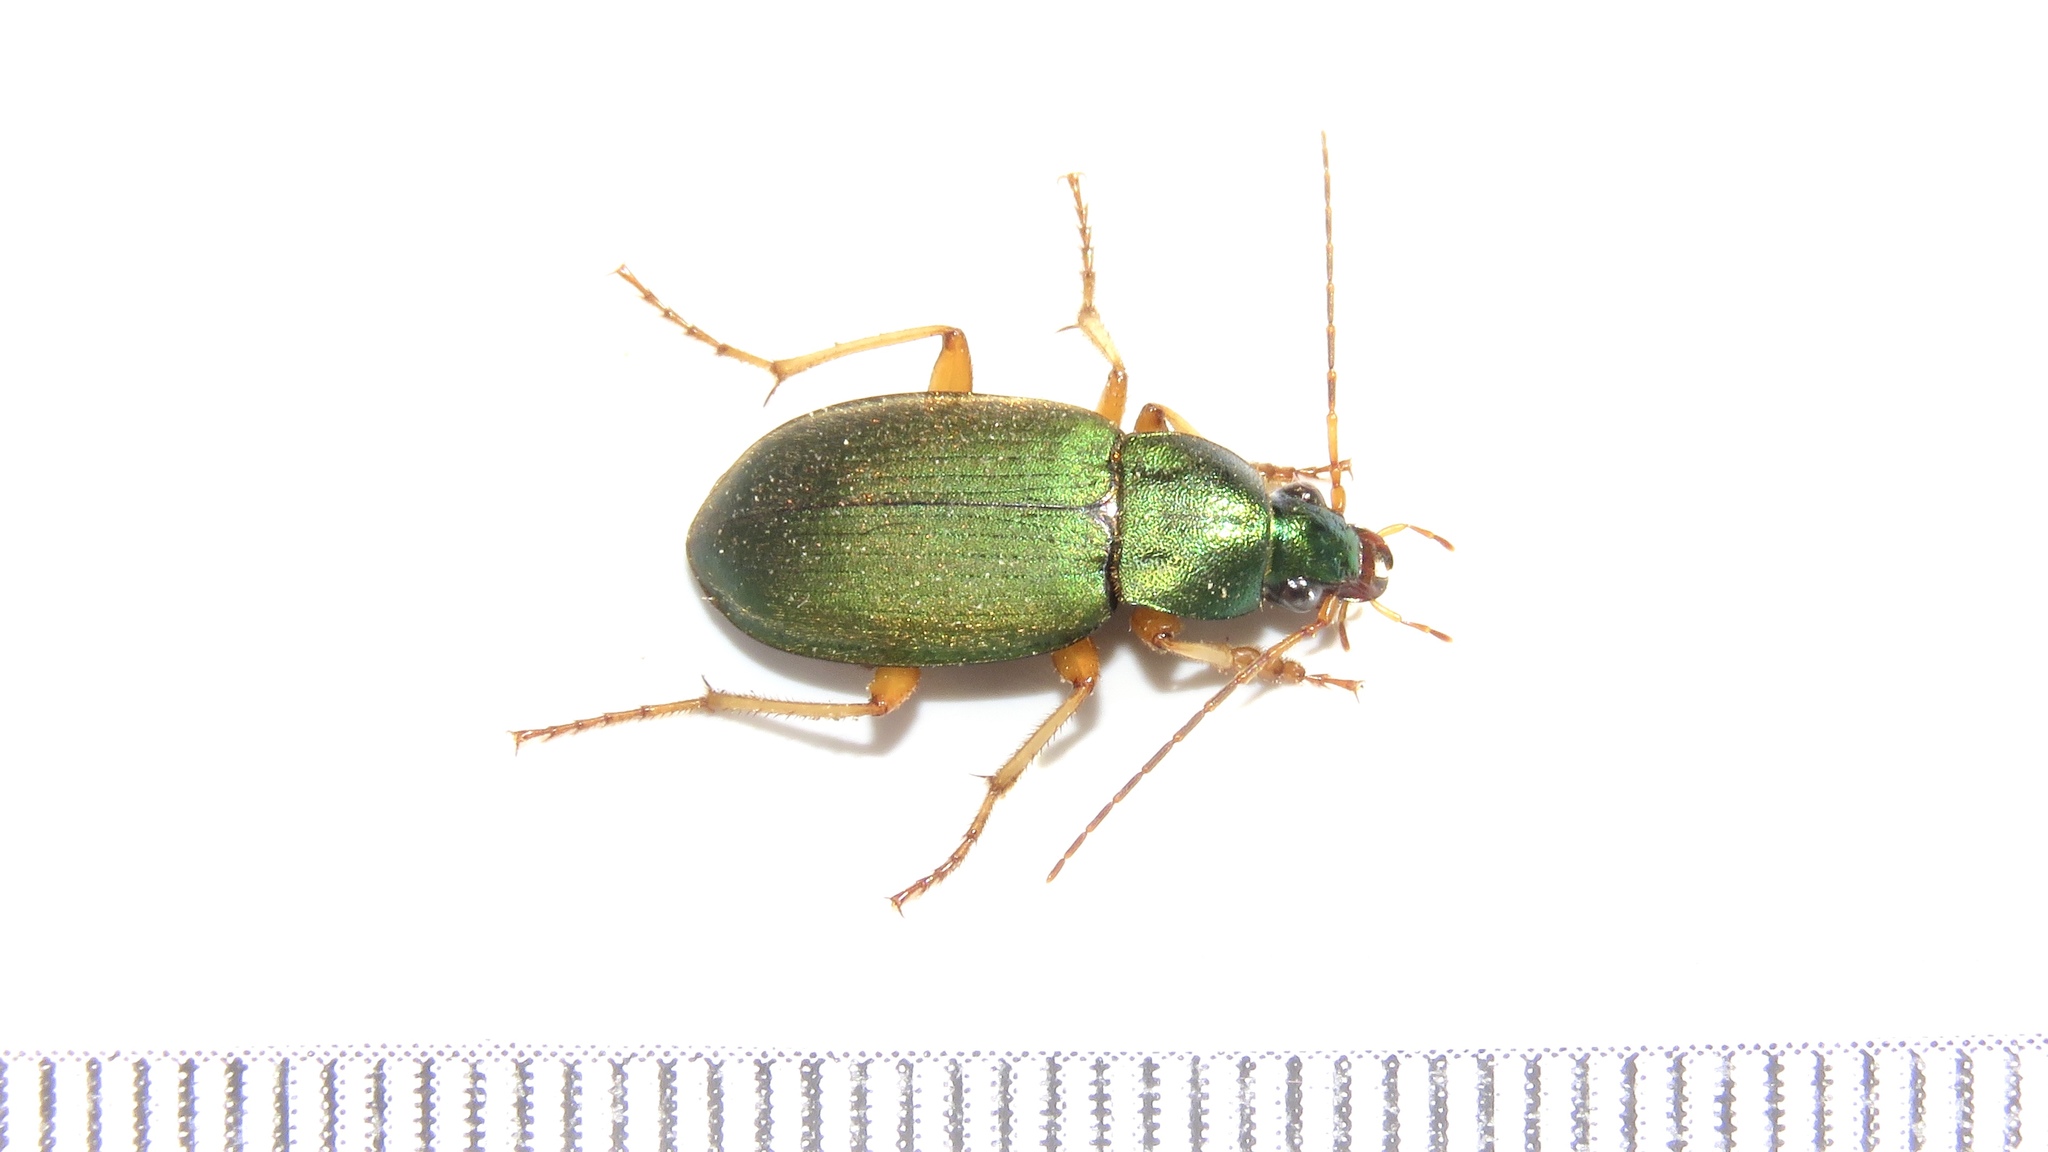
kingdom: Animalia
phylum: Arthropoda
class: Insecta
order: Coleoptera
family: Carabidae
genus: Chlaenius
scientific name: Chlaenius sericeus
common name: Green pubescent ground beetle
